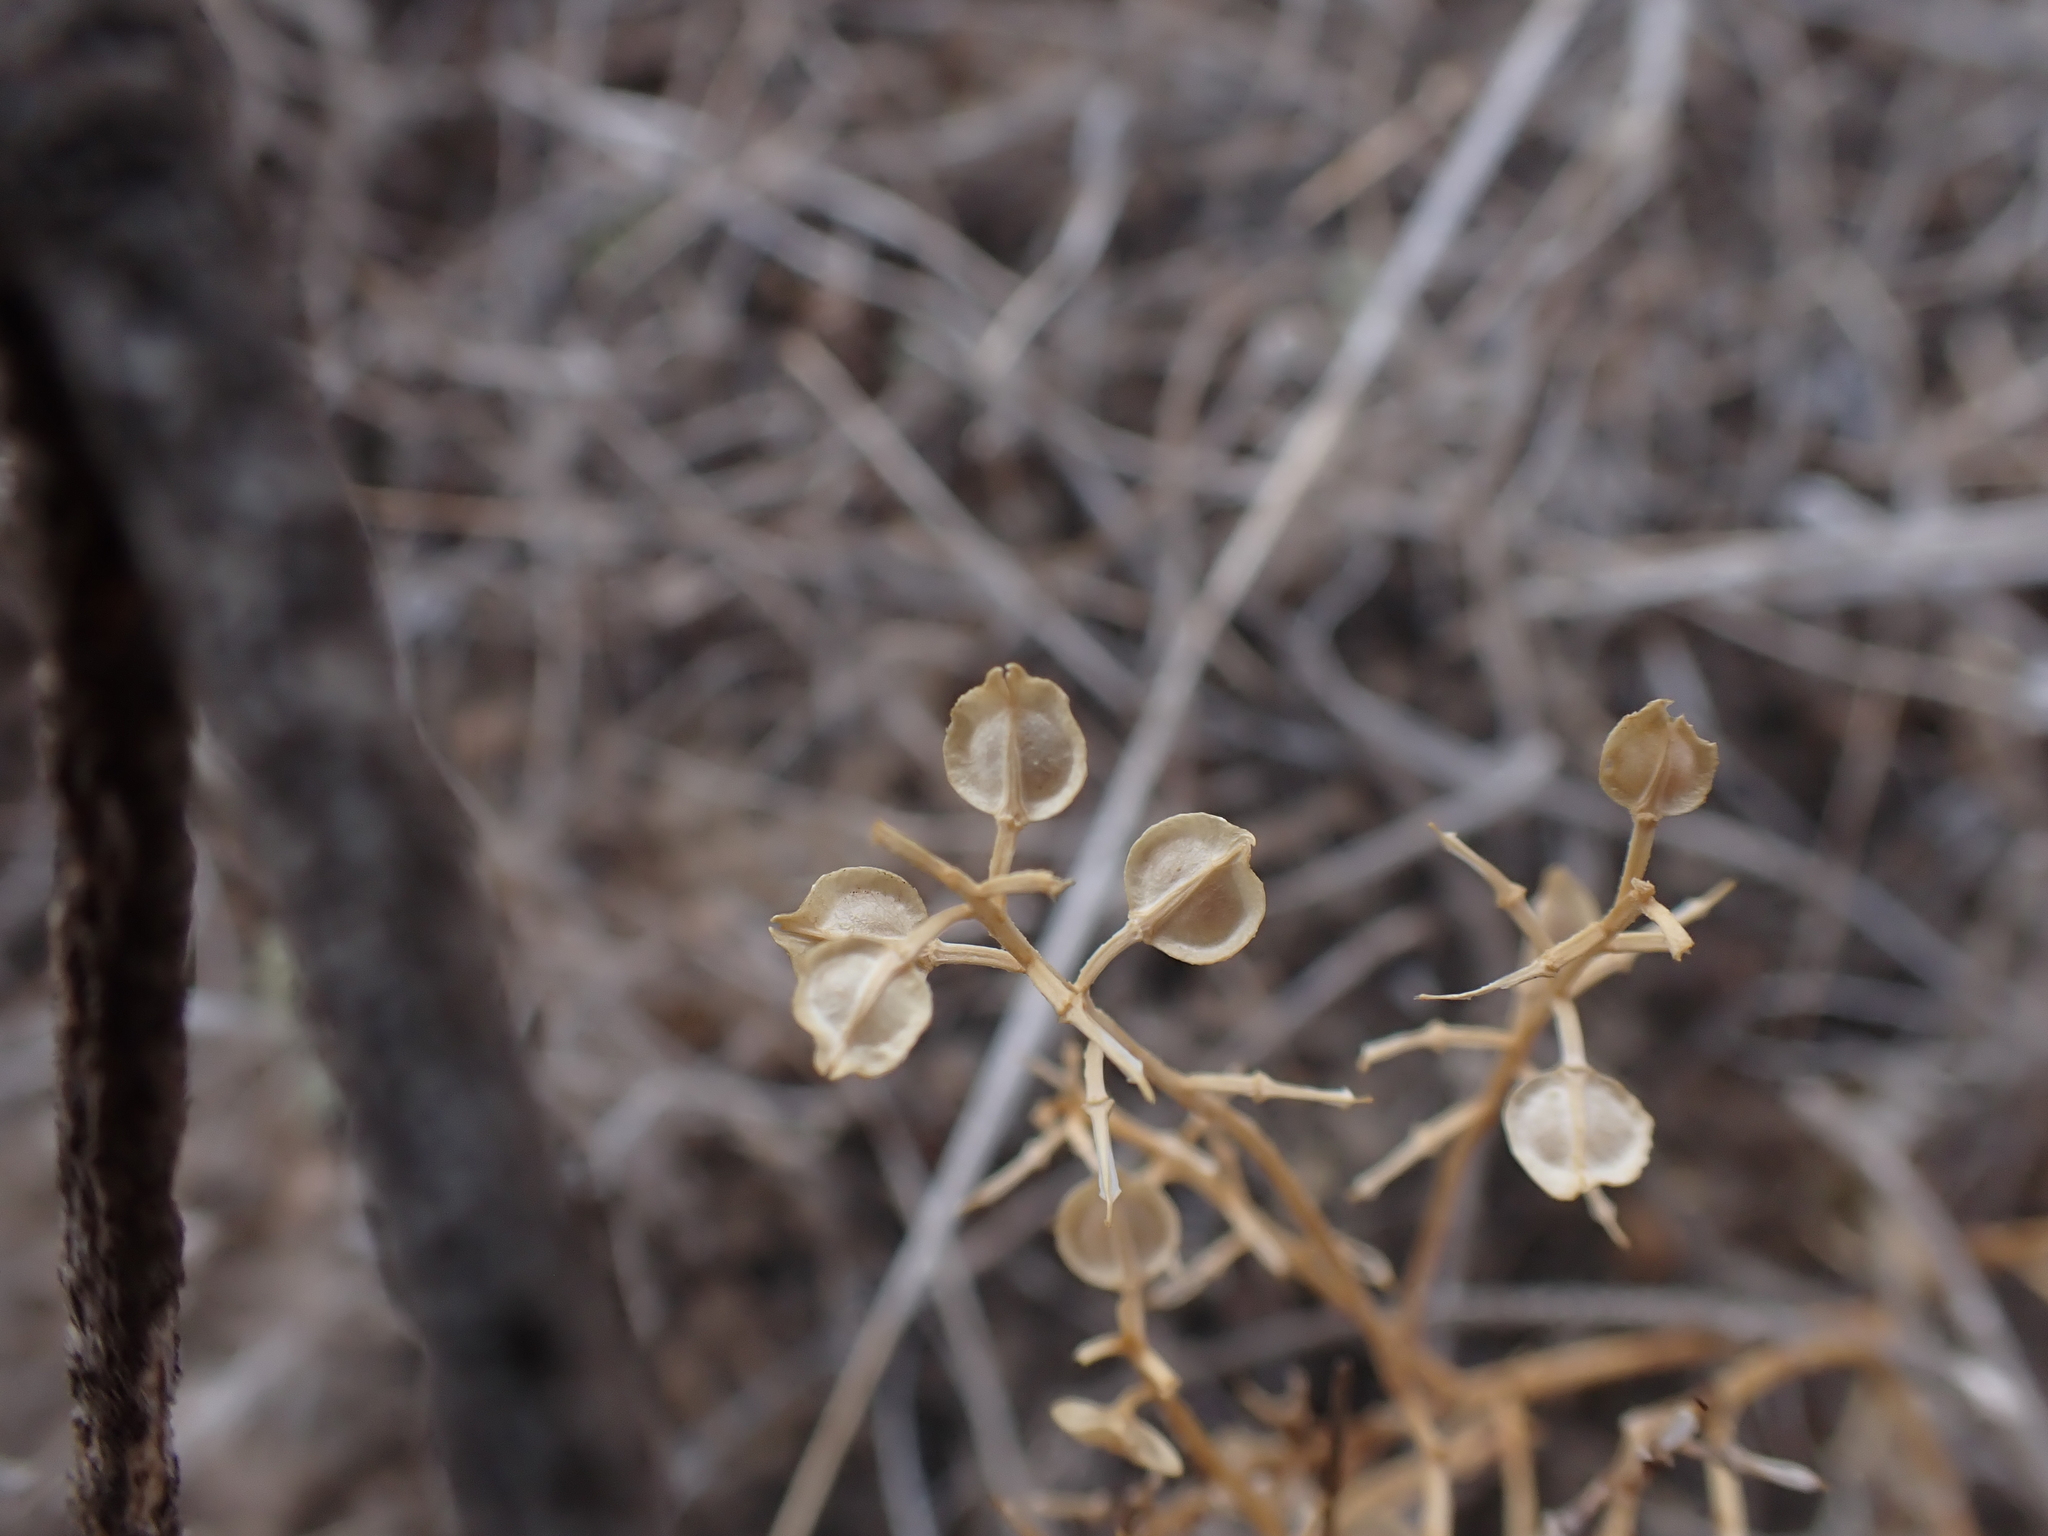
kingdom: Plantae
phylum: Tracheophyta
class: Magnoliopsida
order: Brassicales
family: Brassicaceae
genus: Lepidium
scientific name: Lepidium monoplocoides
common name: Winged pepperwort
